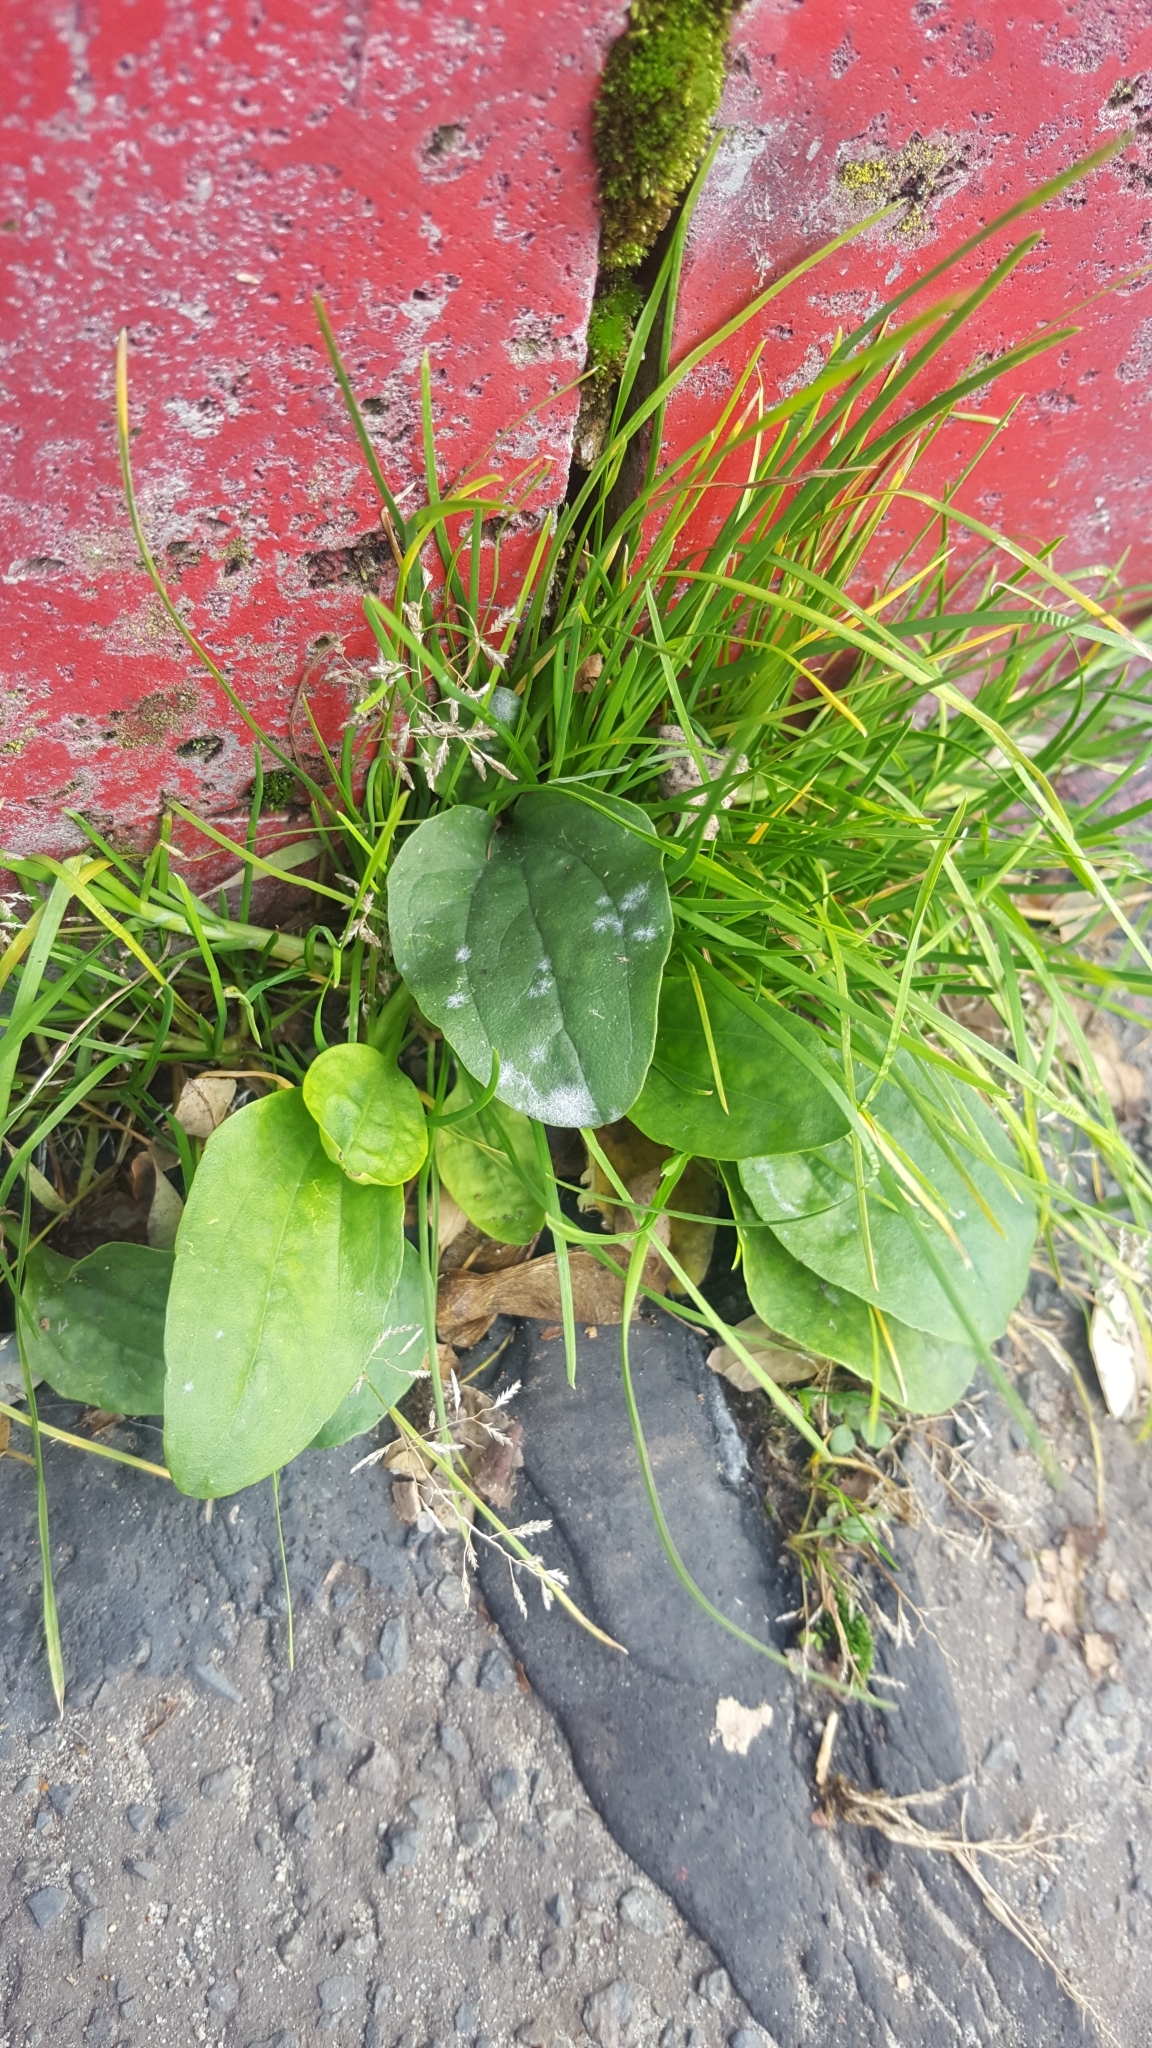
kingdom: Plantae
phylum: Tracheophyta
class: Magnoliopsida
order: Lamiales
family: Plantaginaceae
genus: Plantago
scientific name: Plantago major
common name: Common plantain
